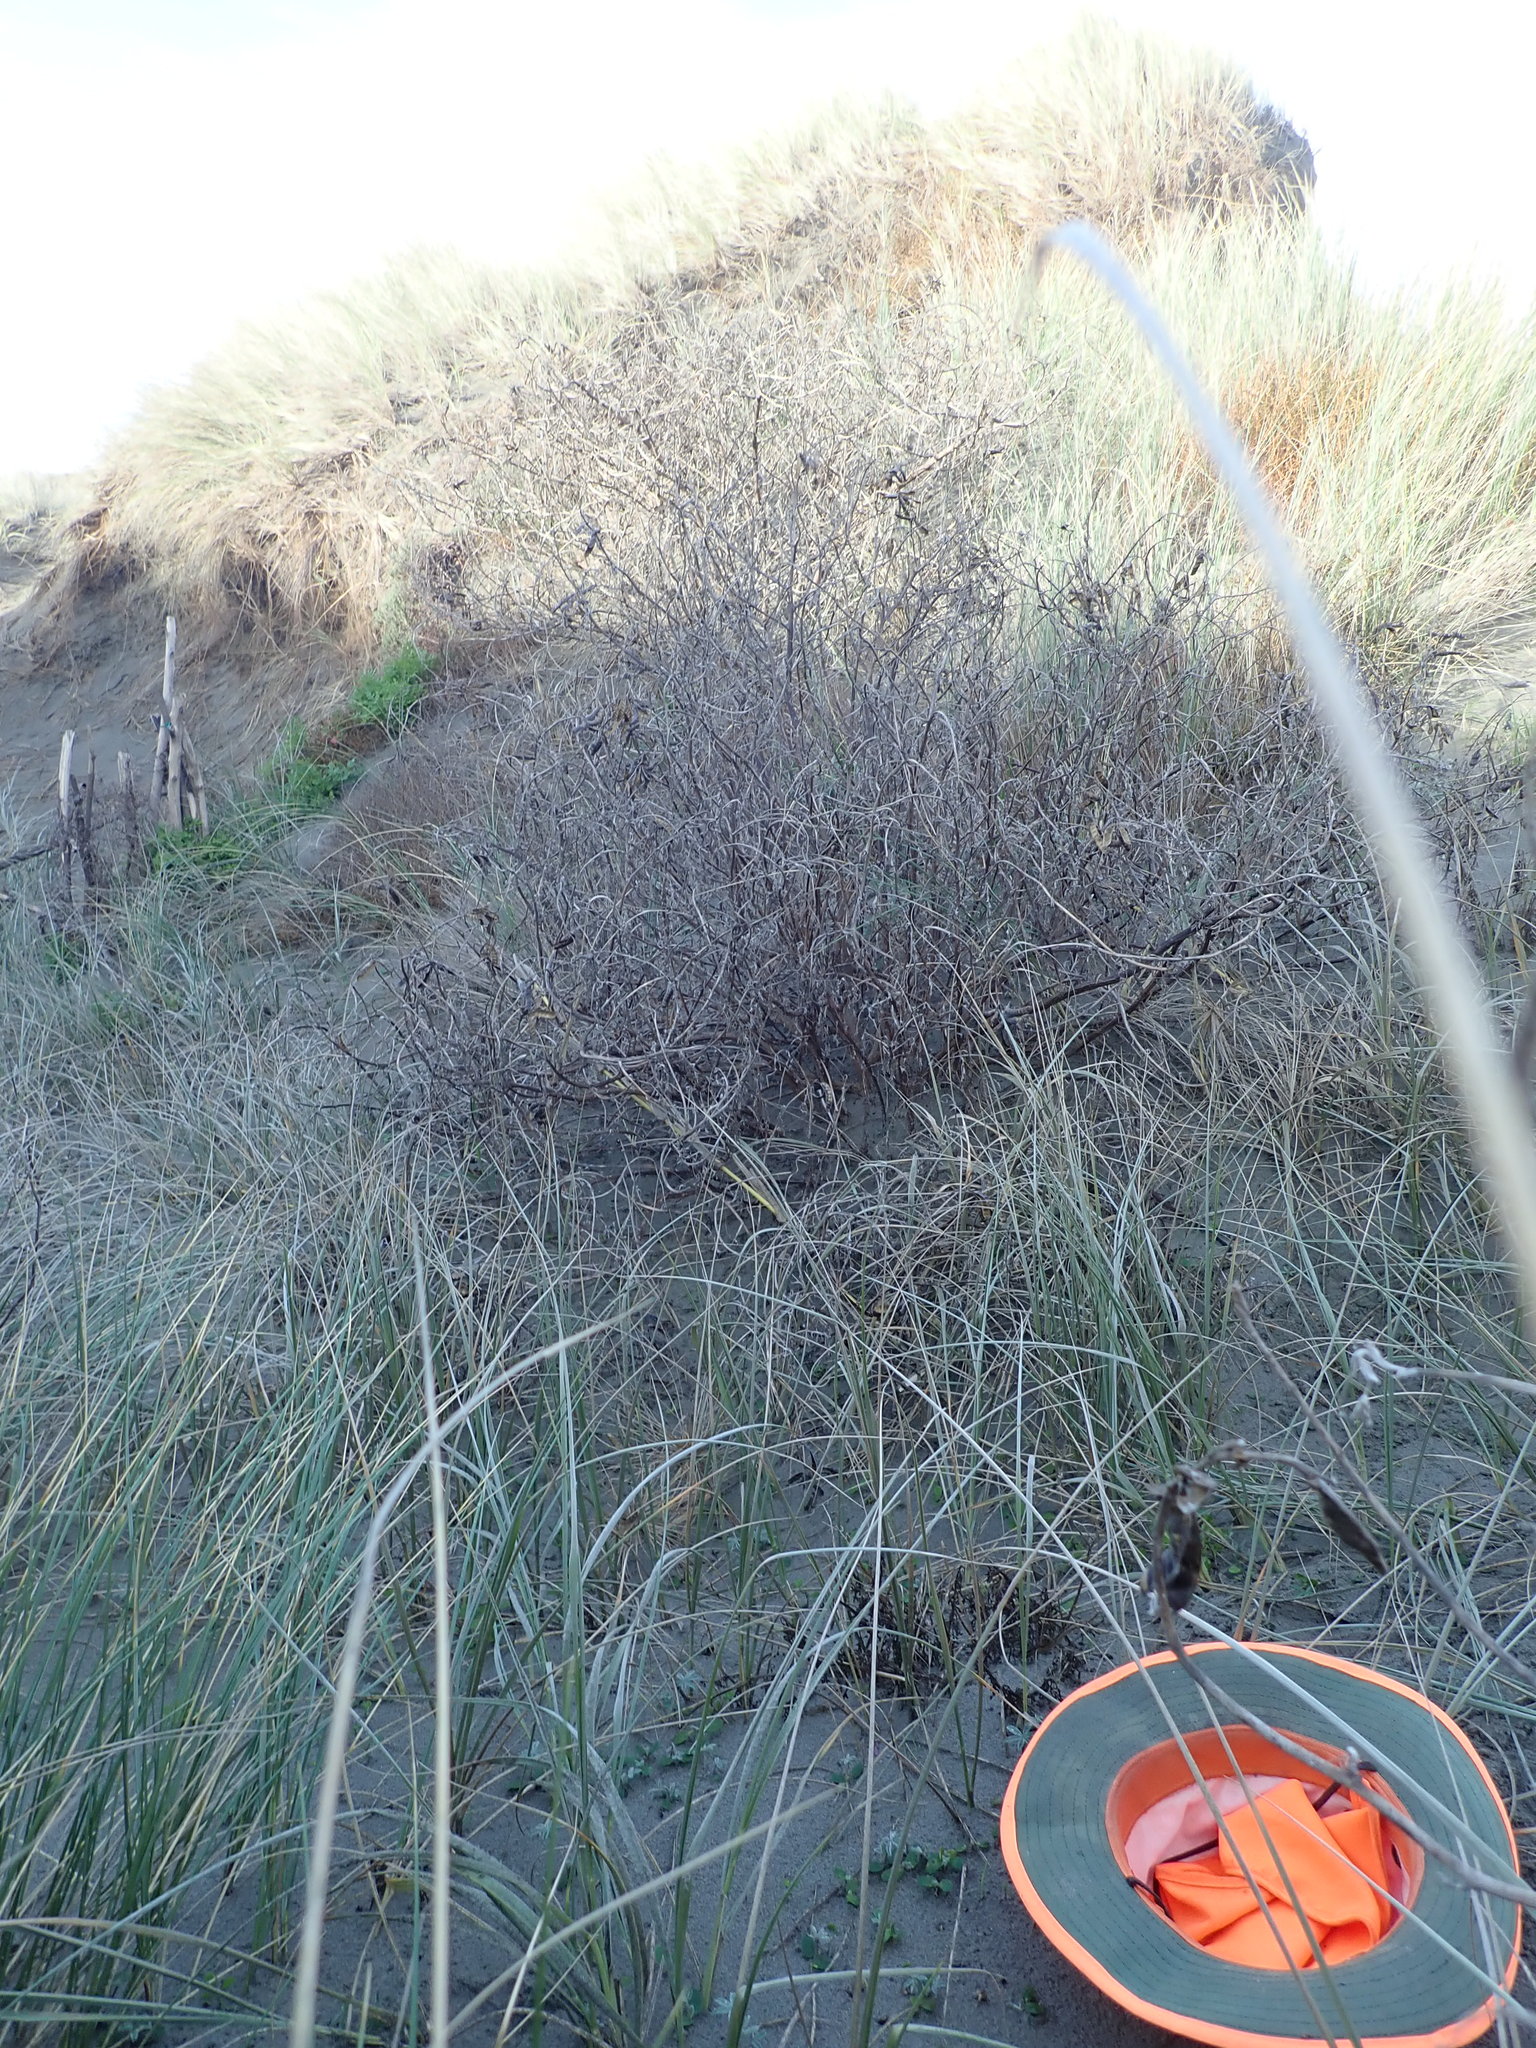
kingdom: Plantae
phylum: Tracheophyta
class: Magnoliopsida
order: Fabales
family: Fabaceae
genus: Lupinus
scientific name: Lupinus arboreus
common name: Yellow bush lupine
